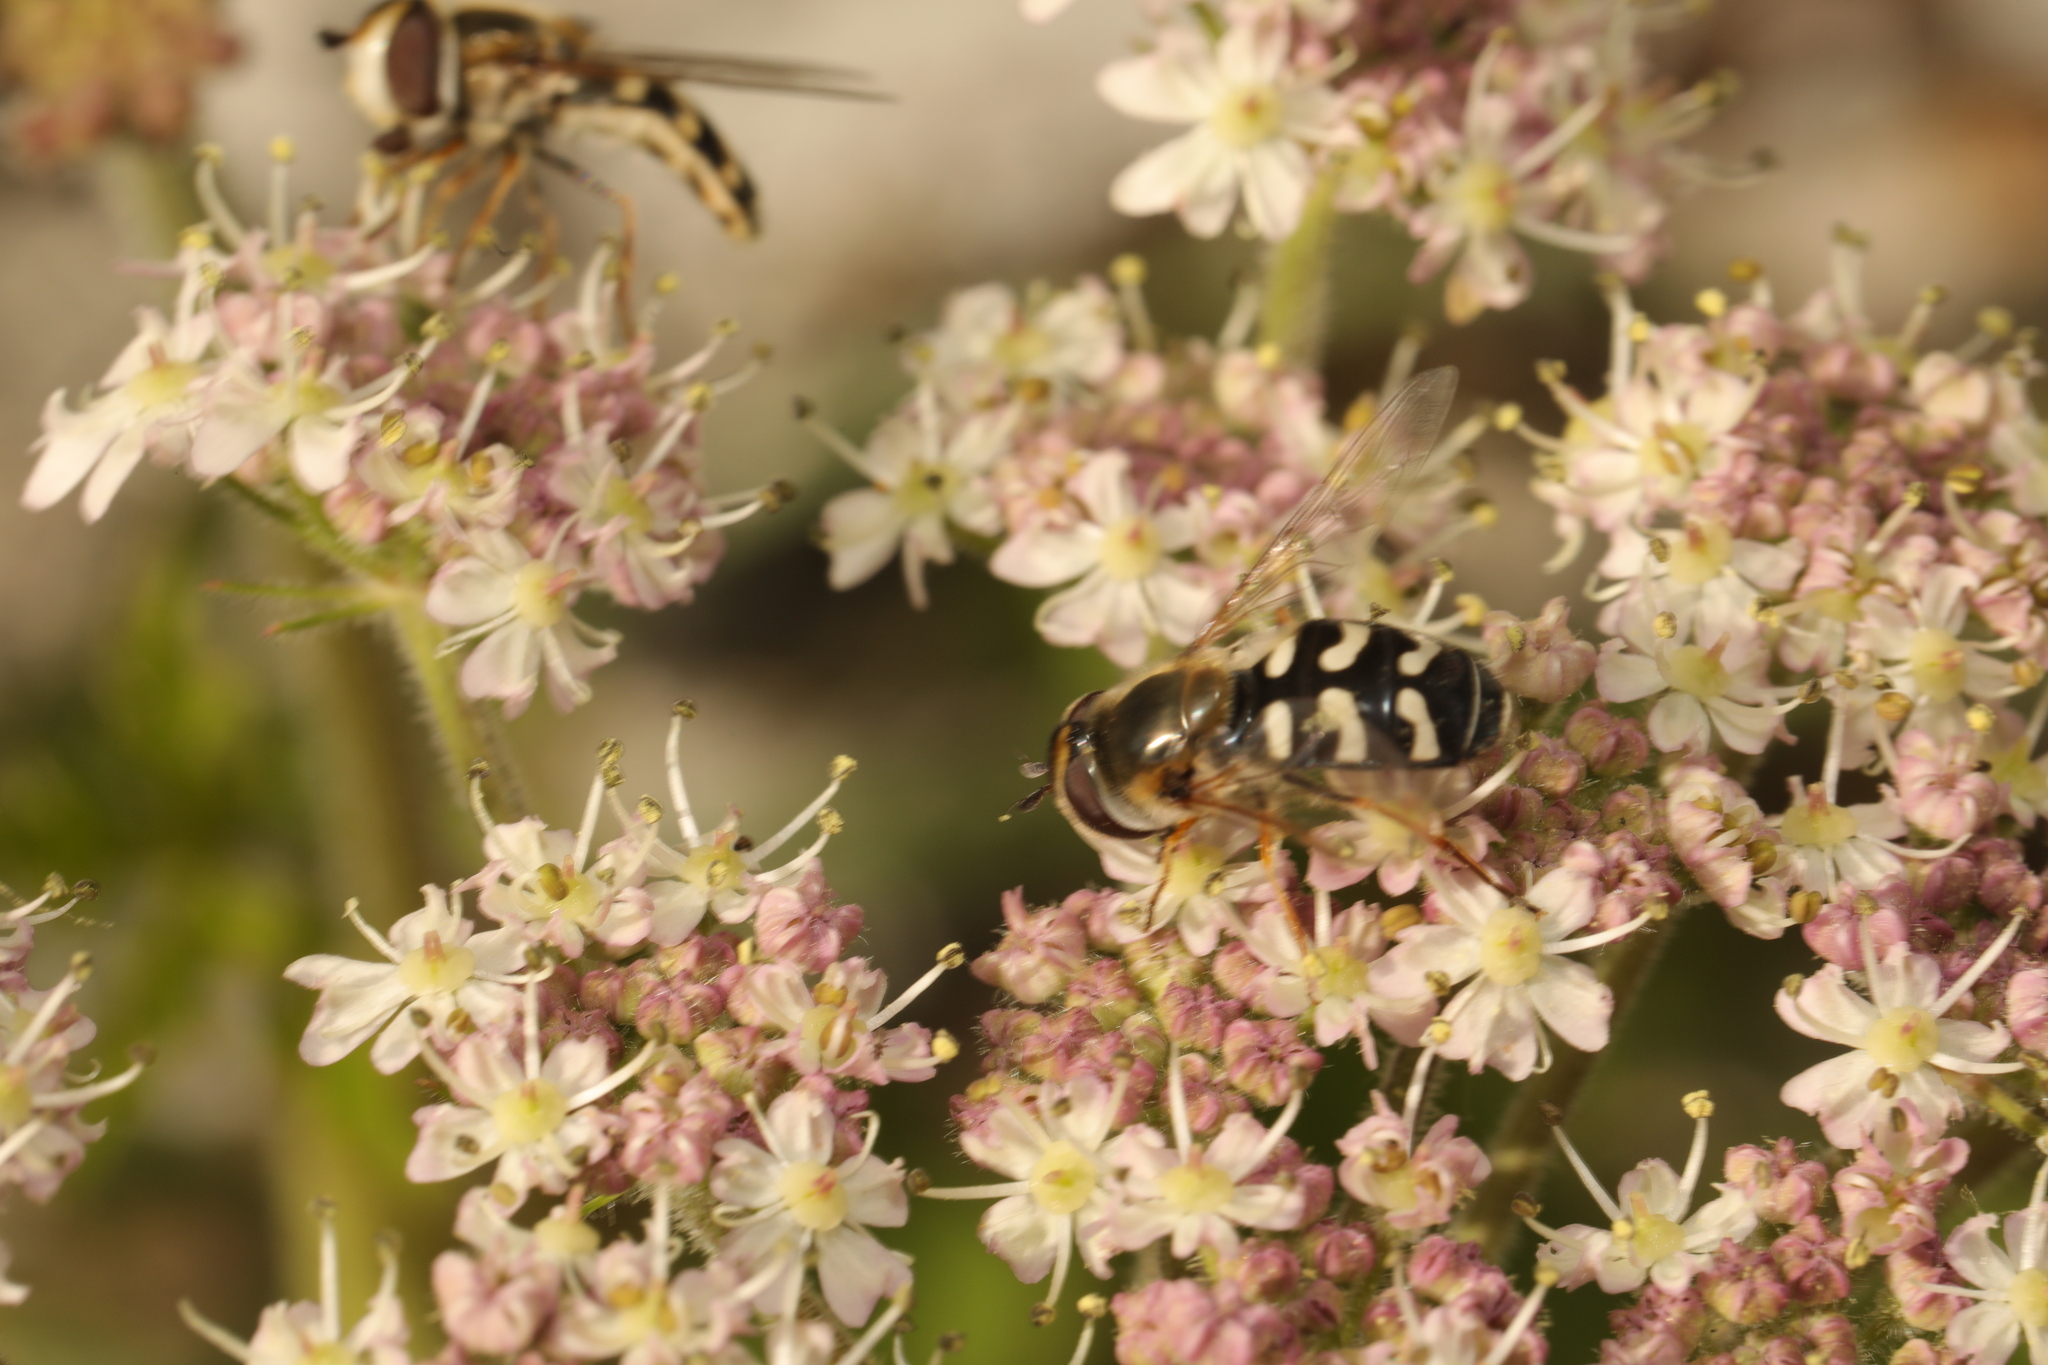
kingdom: Animalia
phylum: Arthropoda
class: Insecta
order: Diptera
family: Syrphidae
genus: Scaeva
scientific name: Scaeva pyrastri
